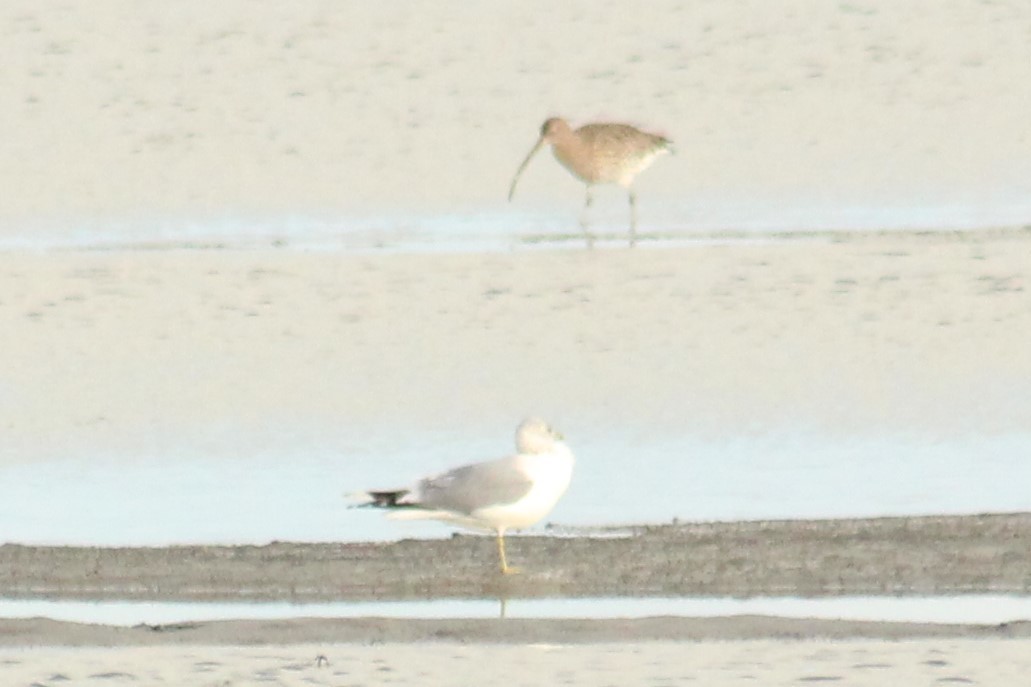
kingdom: Animalia
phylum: Chordata
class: Aves
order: Charadriiformes
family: Scolopacidae
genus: Numenius
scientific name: Numenius arquata
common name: Eurasian curlew
